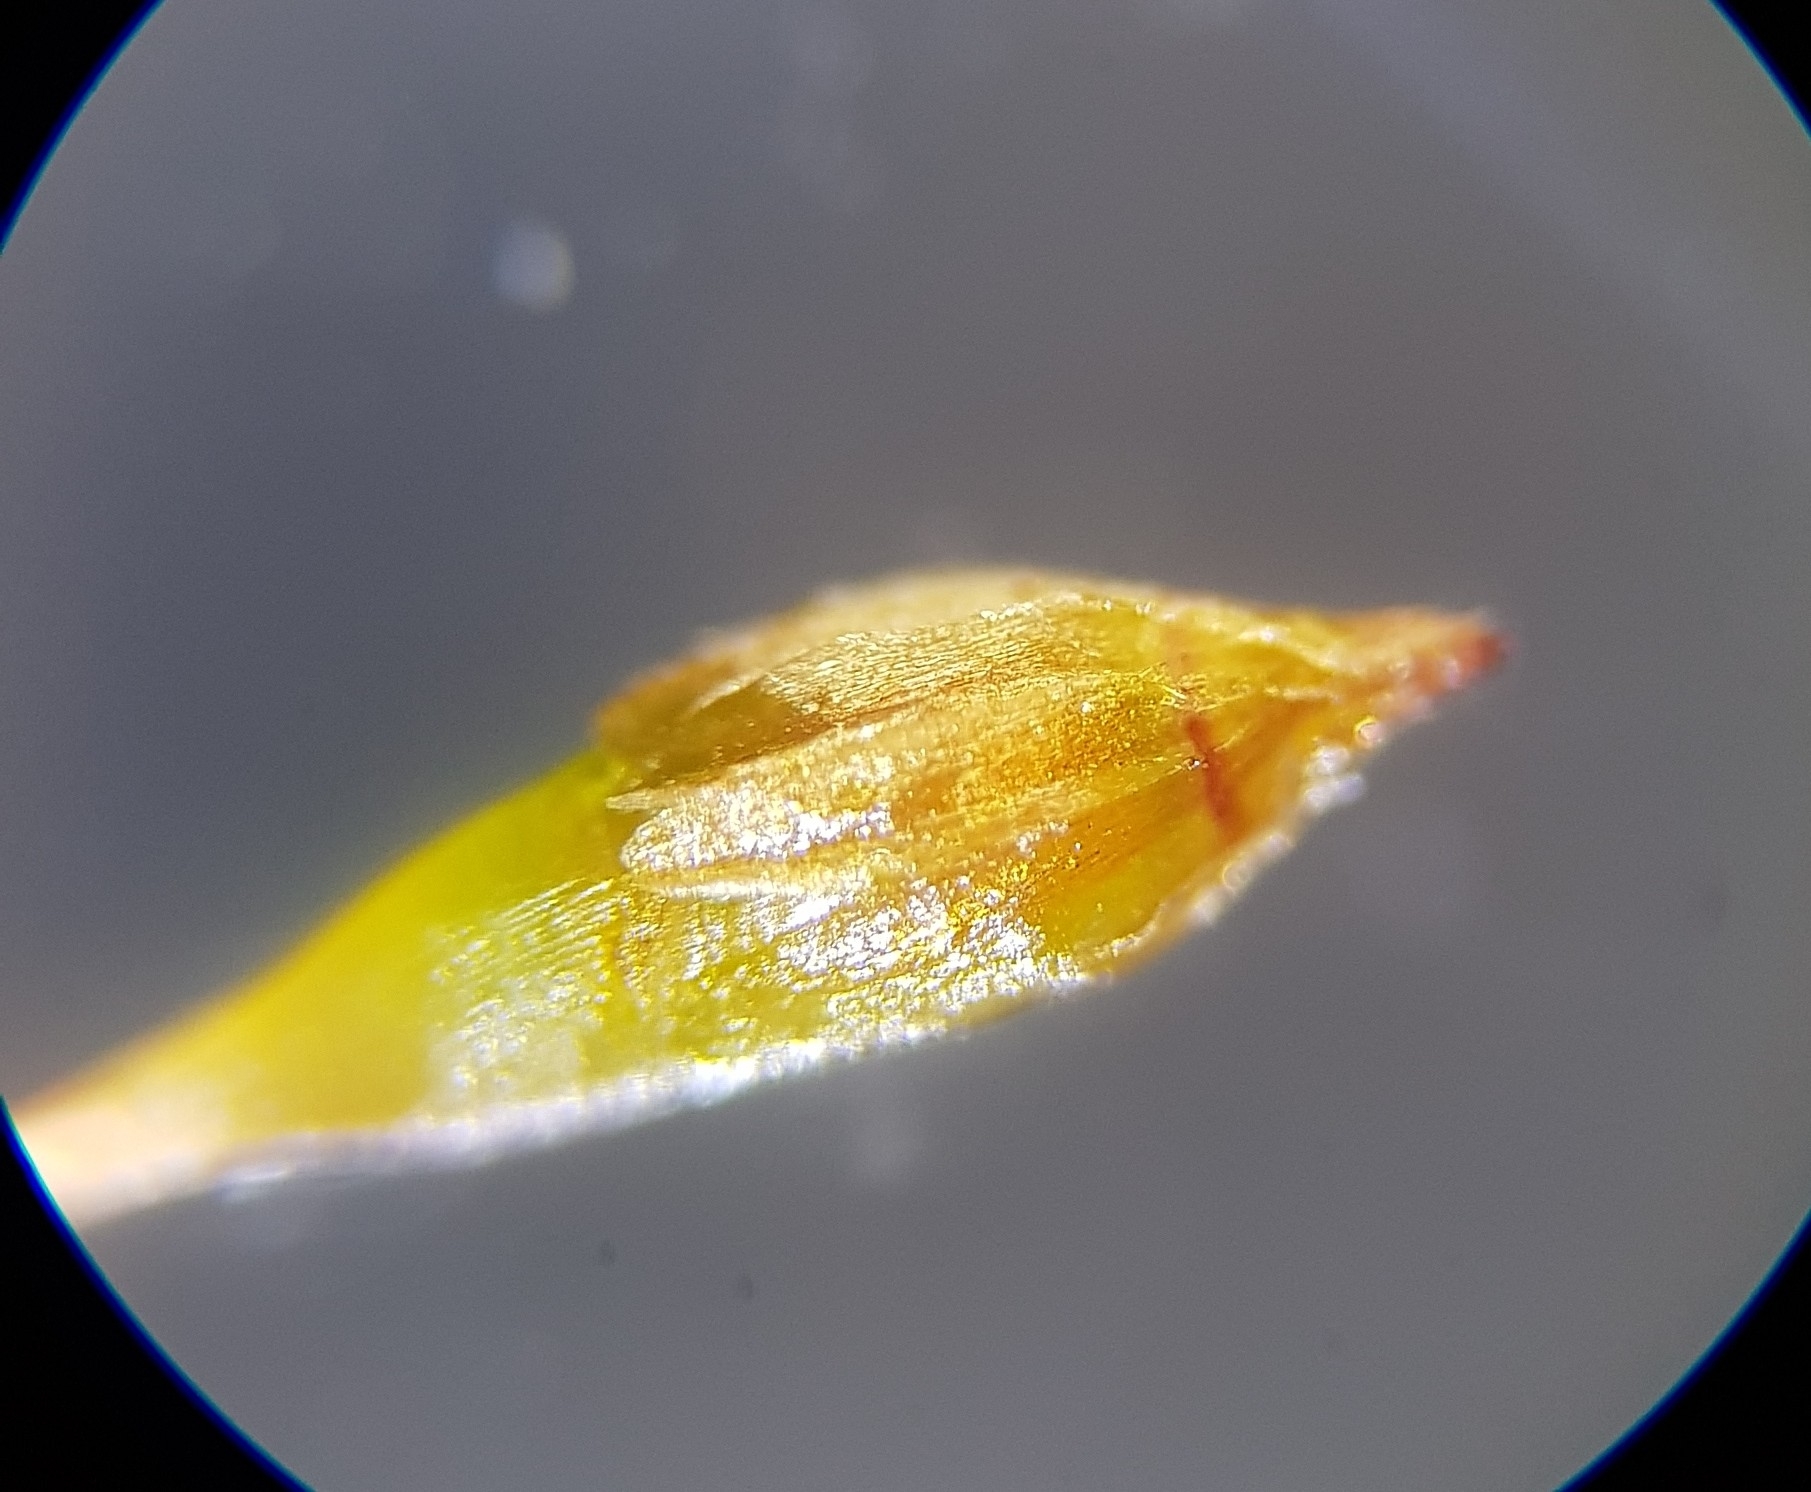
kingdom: Plantae
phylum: Bryophyta
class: Bryopsida
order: Orthotrichales
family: Orthotrichaceae
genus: Lewinskya
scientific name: Lewinskya affinis
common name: Wood bristle-moss
